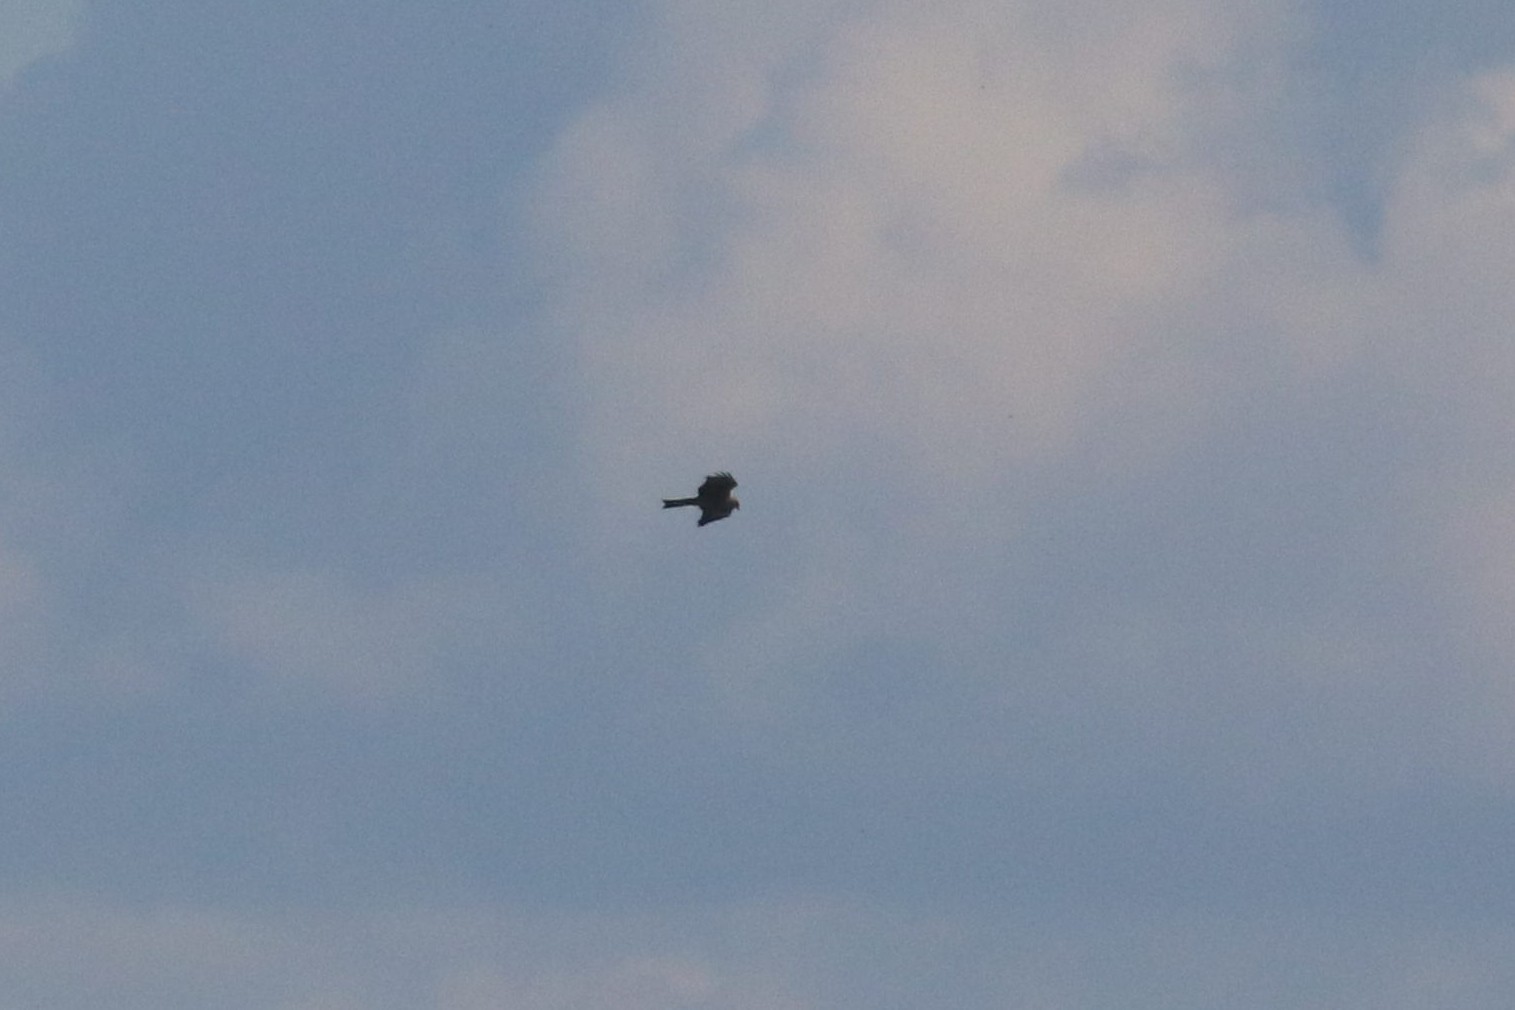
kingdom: Animalia
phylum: Chordata
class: Aves
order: Accipitriformes
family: Accipitridae
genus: Milvus
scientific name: Milvus migrans
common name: Black kite
